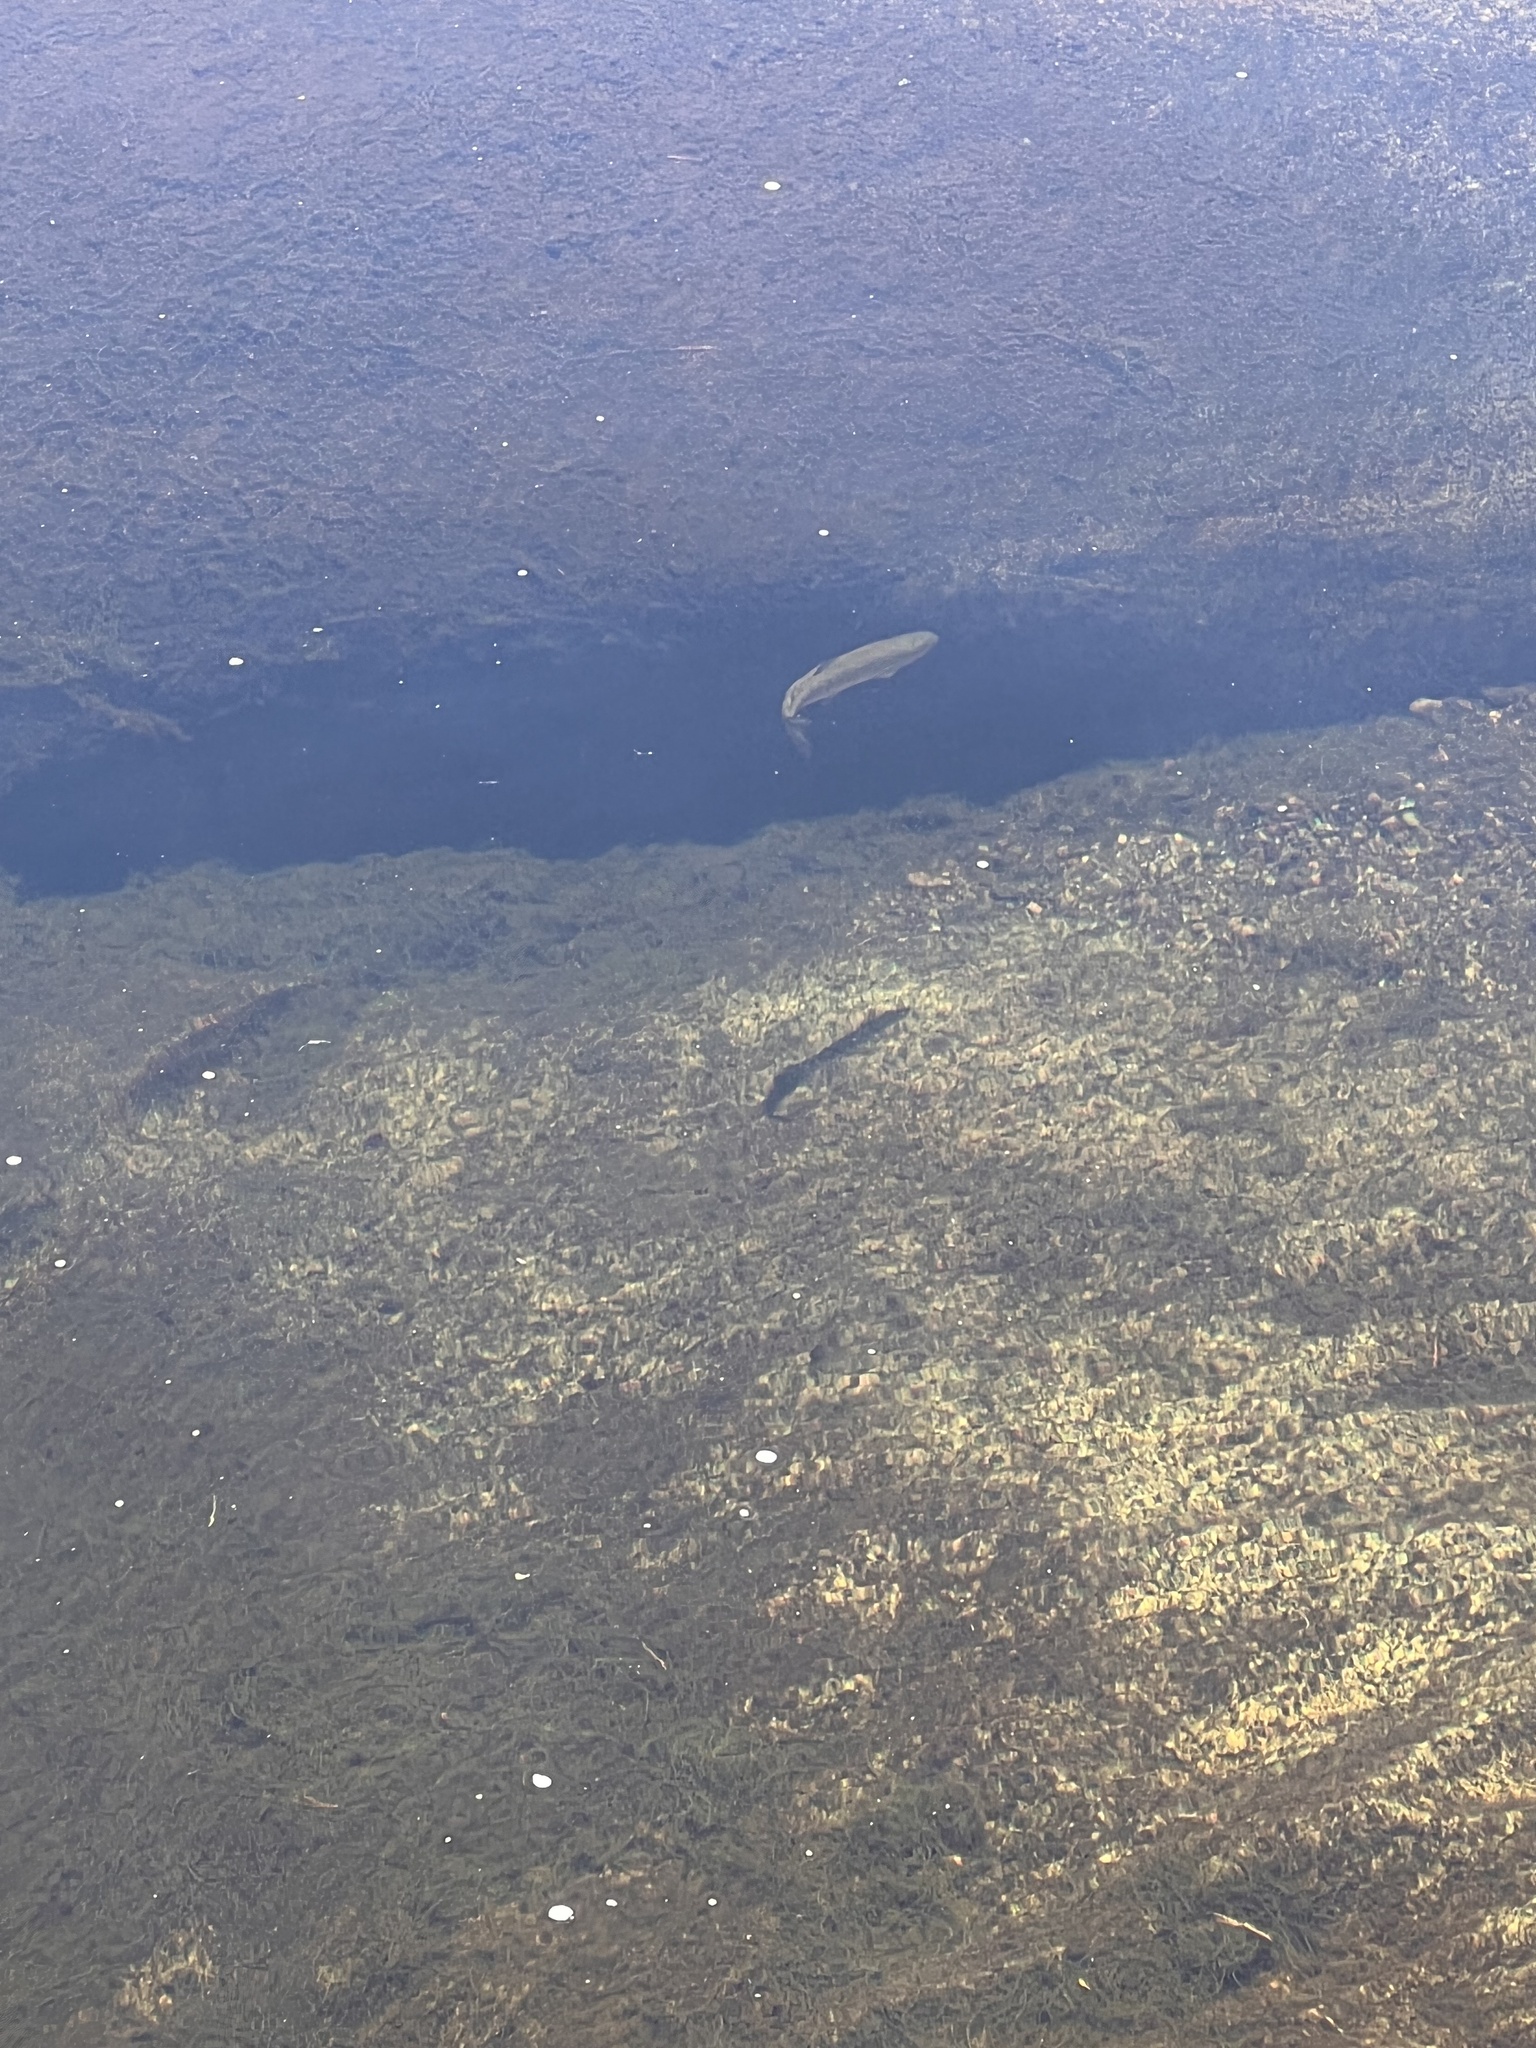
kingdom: Animalia
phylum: Chordata
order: Salmoniformes
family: Salmonidae
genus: Oncorhynchus
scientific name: Oncorhynchus mykiss
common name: Rainbow trout
